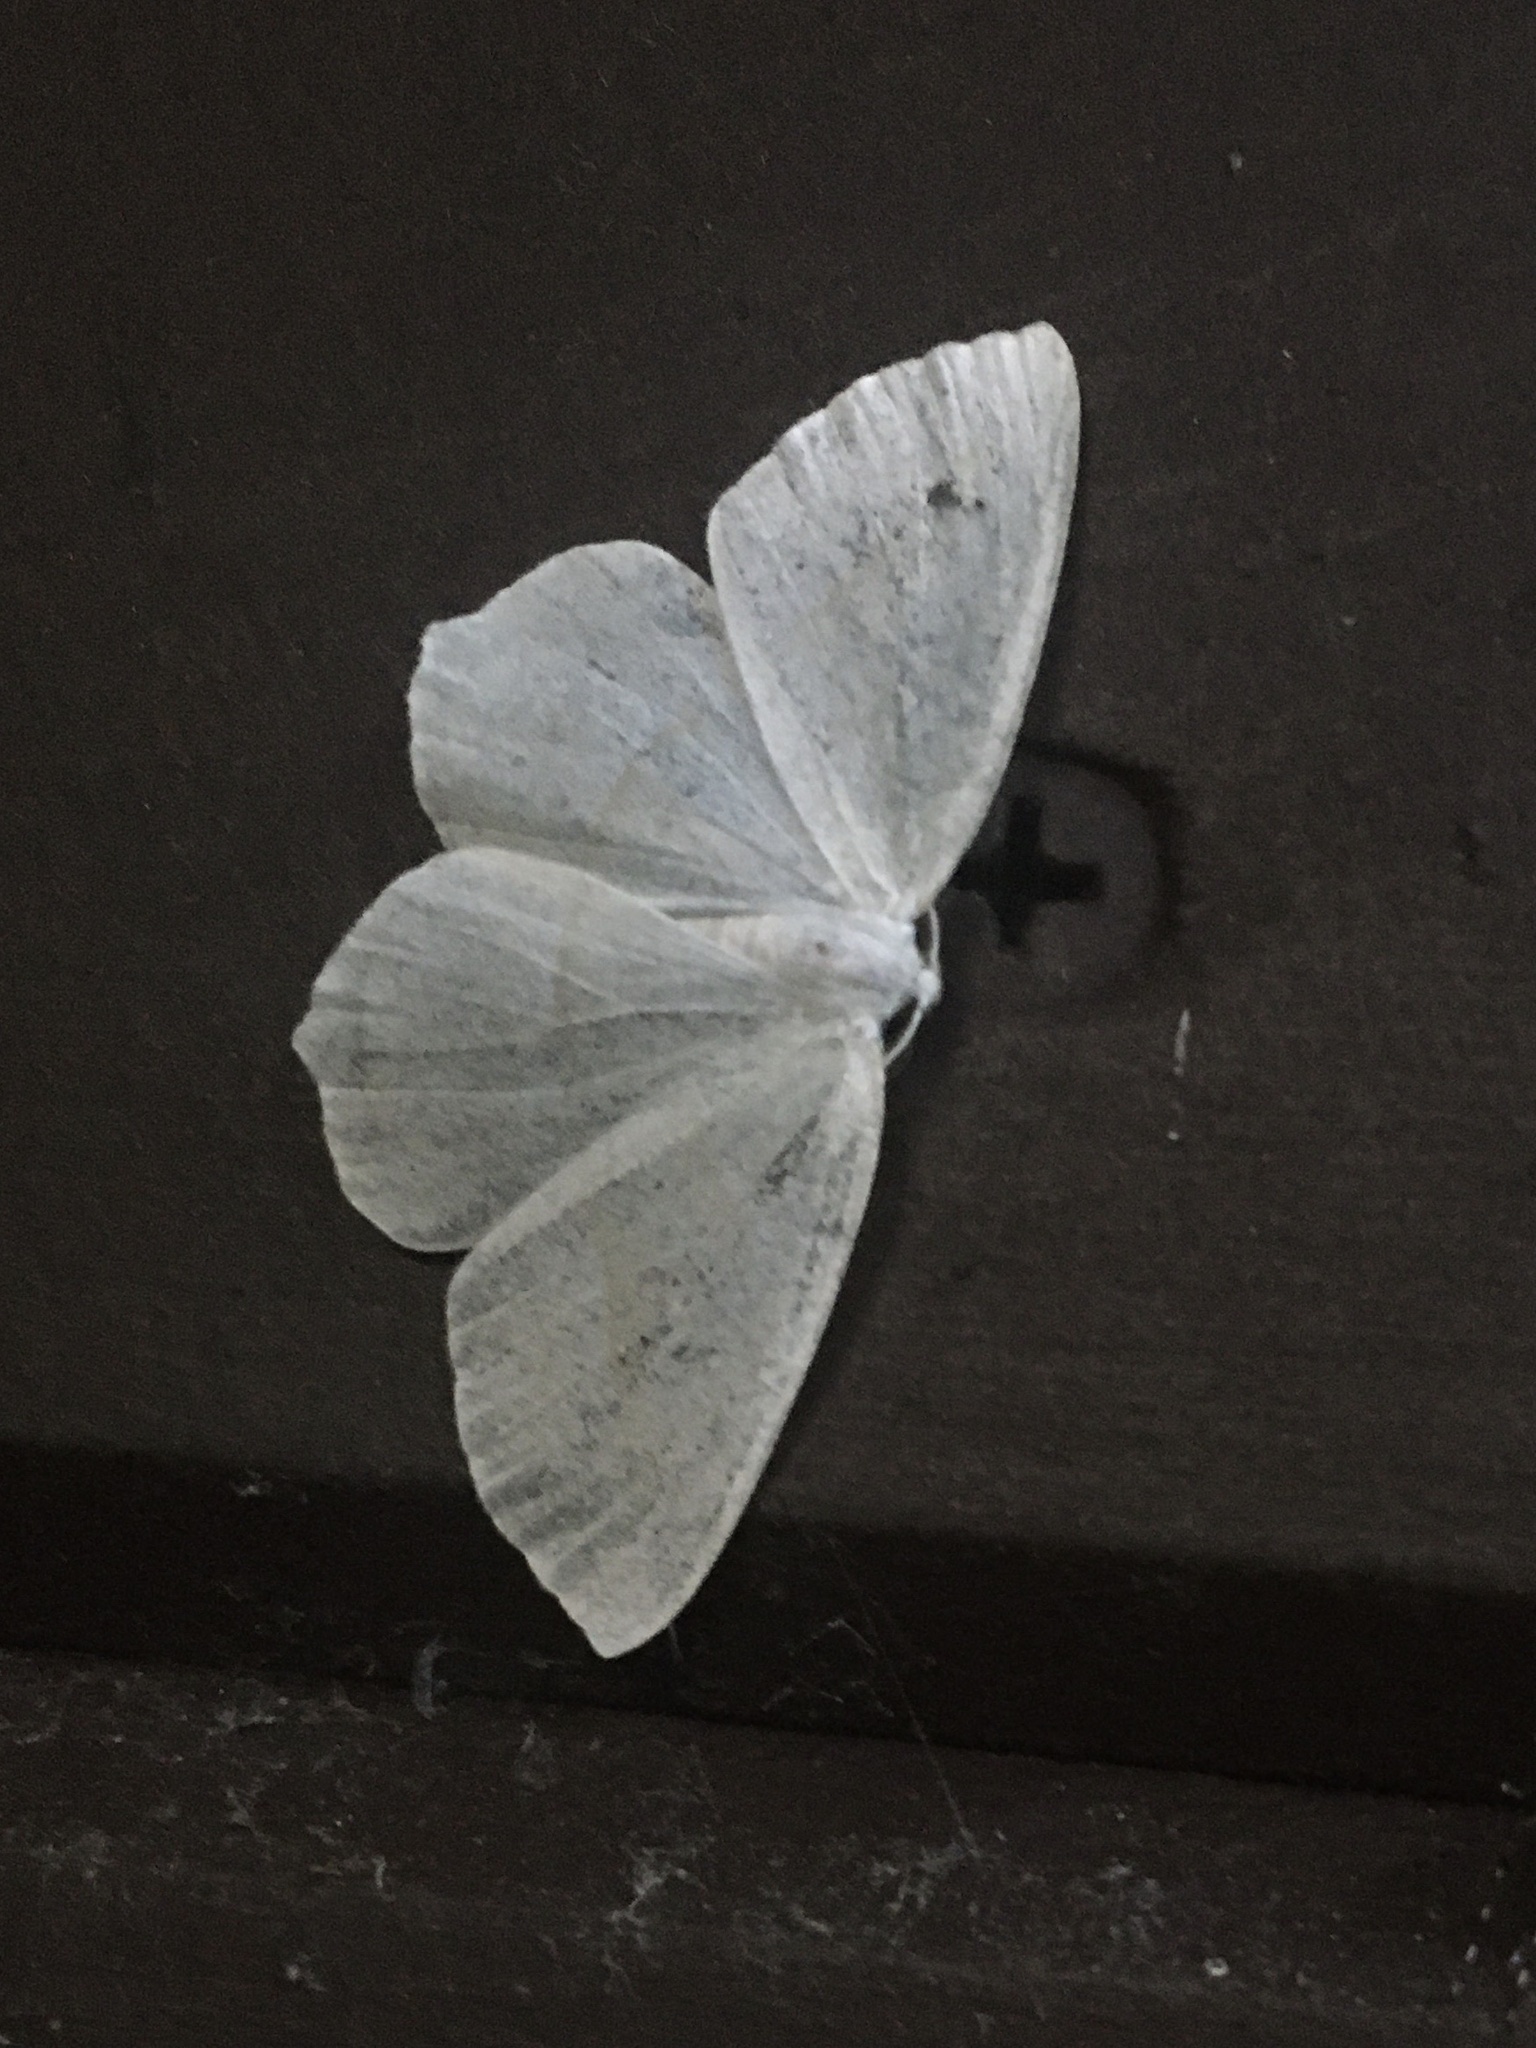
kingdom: Animalia
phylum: Arthropoda
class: Insecta
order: Lepidoptera
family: Geometridae
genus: Campaea
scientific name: Campaea perlata
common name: Fringed looper
